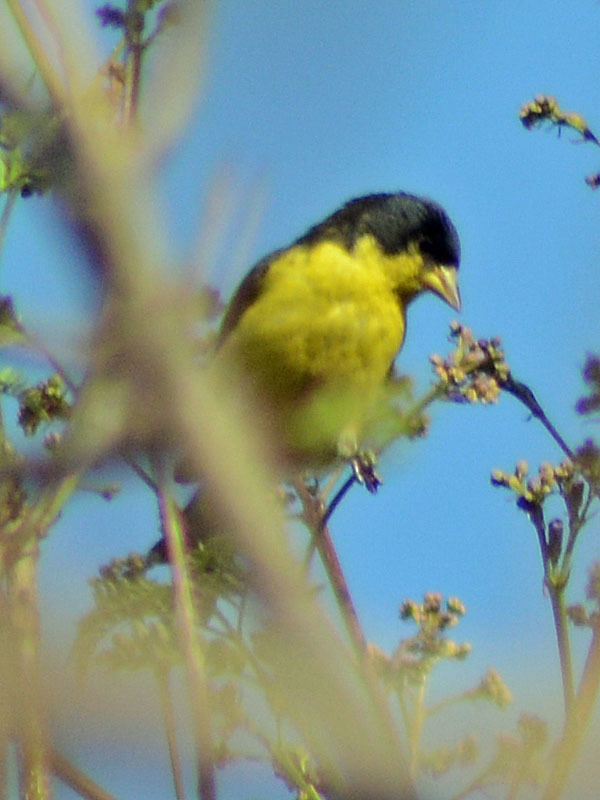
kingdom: Animalia
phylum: Chordata
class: Aves
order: Passeriformes
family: Fringillidae
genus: Spinus
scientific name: Spinus psaltria
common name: Lesser goldfinch
